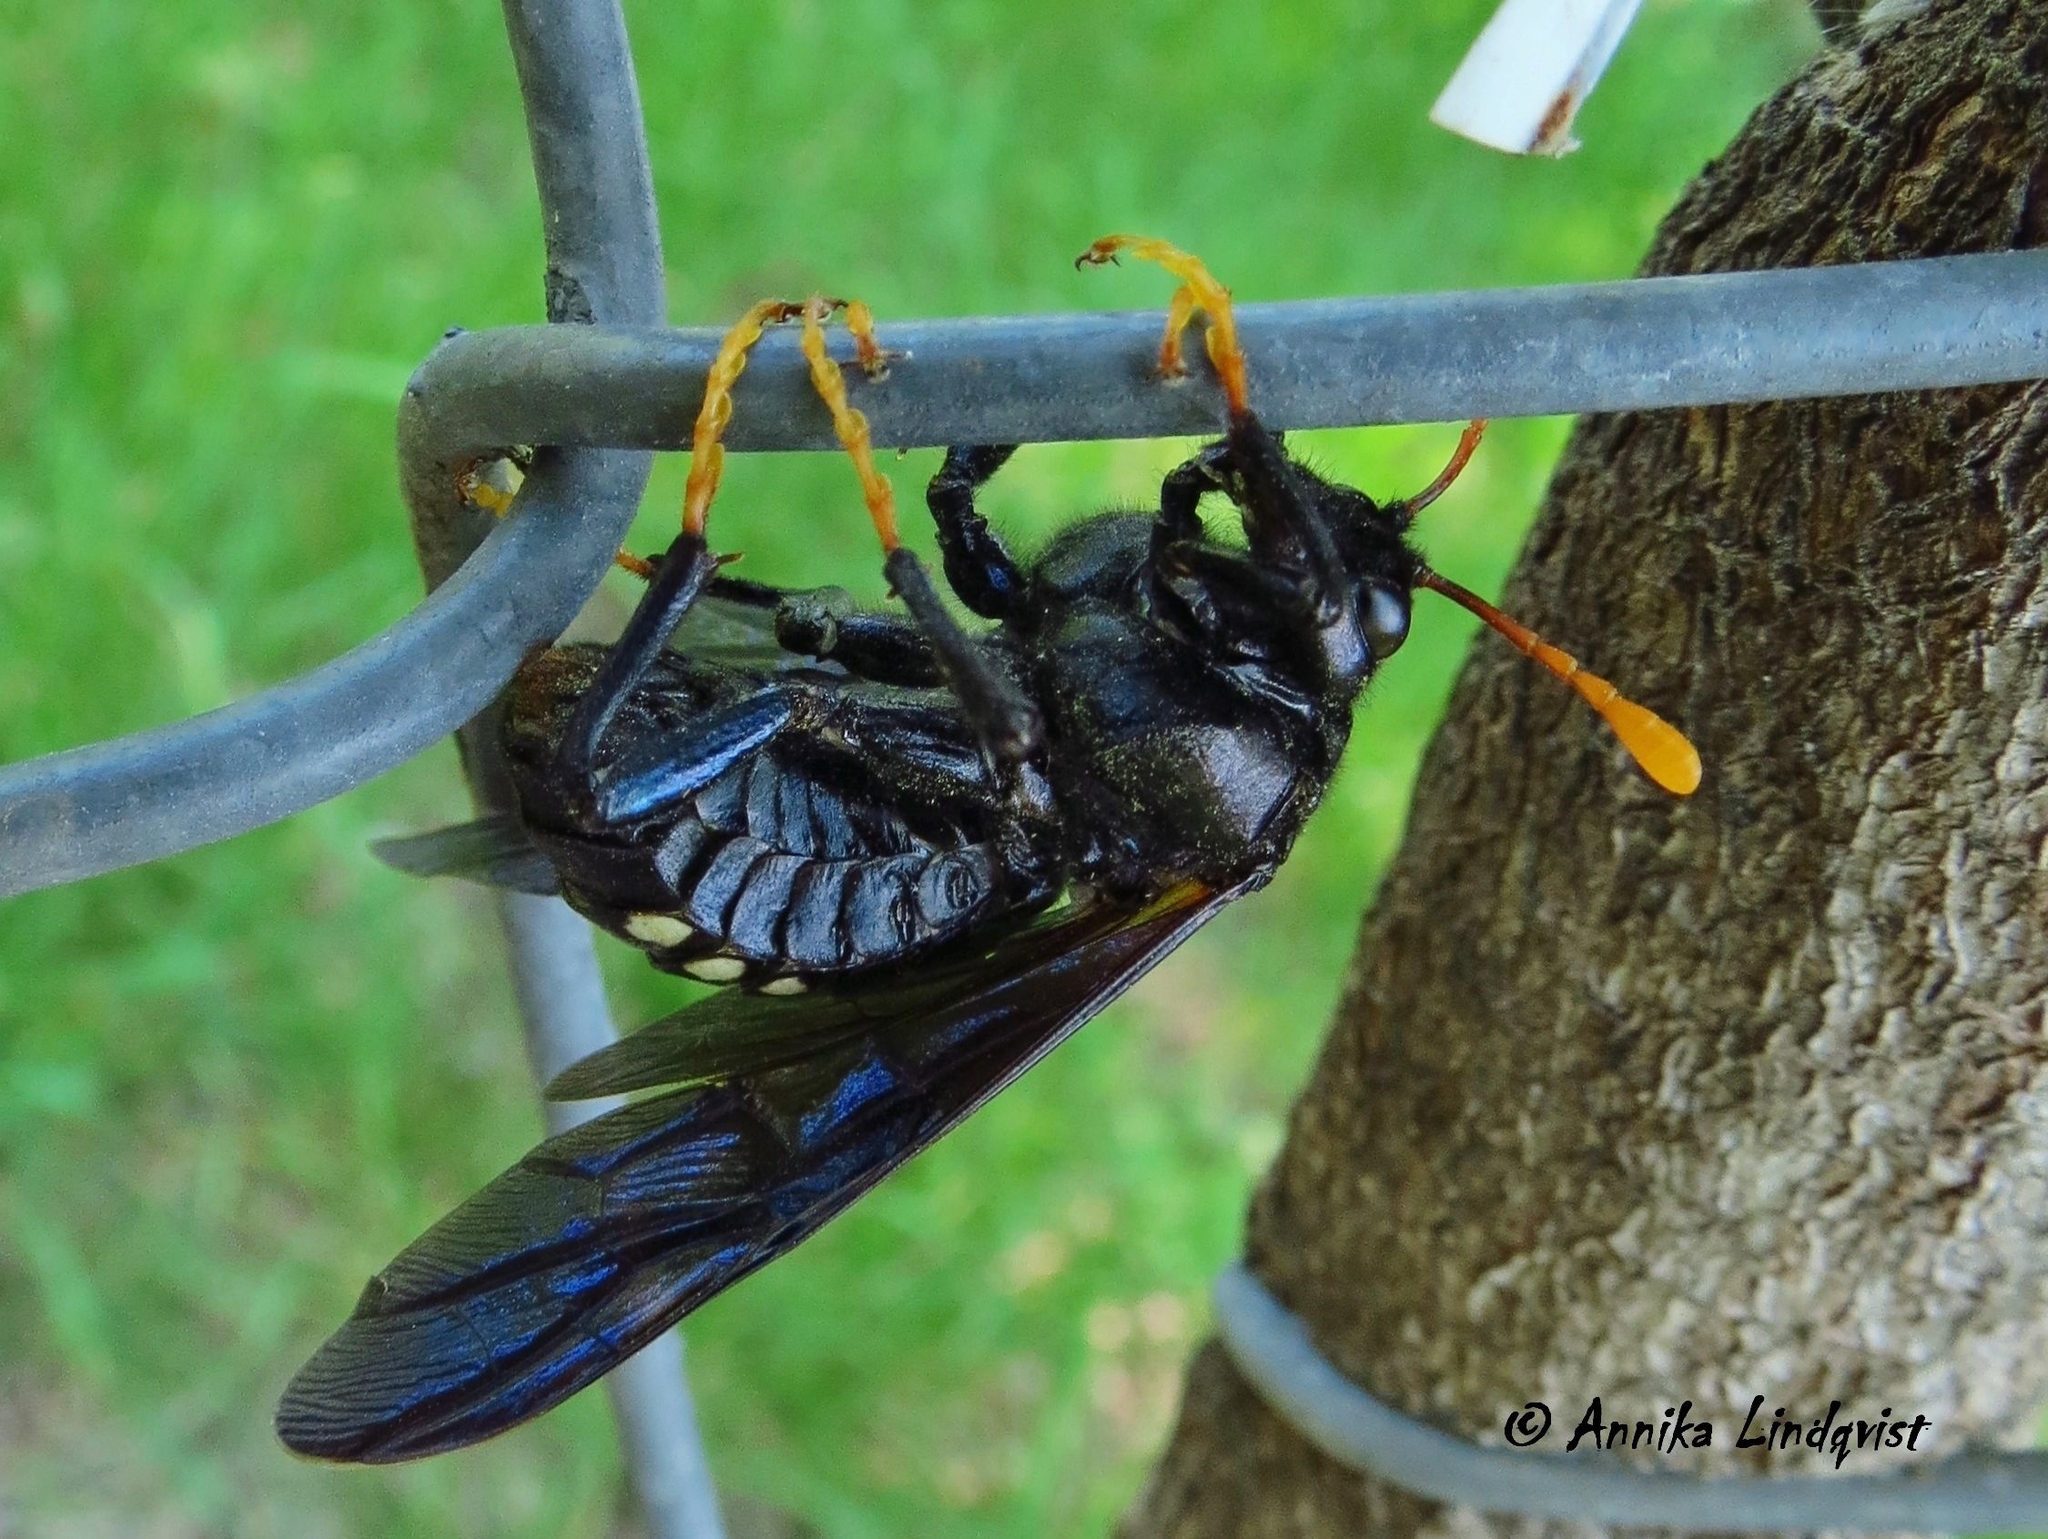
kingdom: Animalia
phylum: Arthropoda
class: Insecta
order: Hymenoptera
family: Cimbicidae
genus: Cimbex
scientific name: Cimbex americana
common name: Elm sawfly
